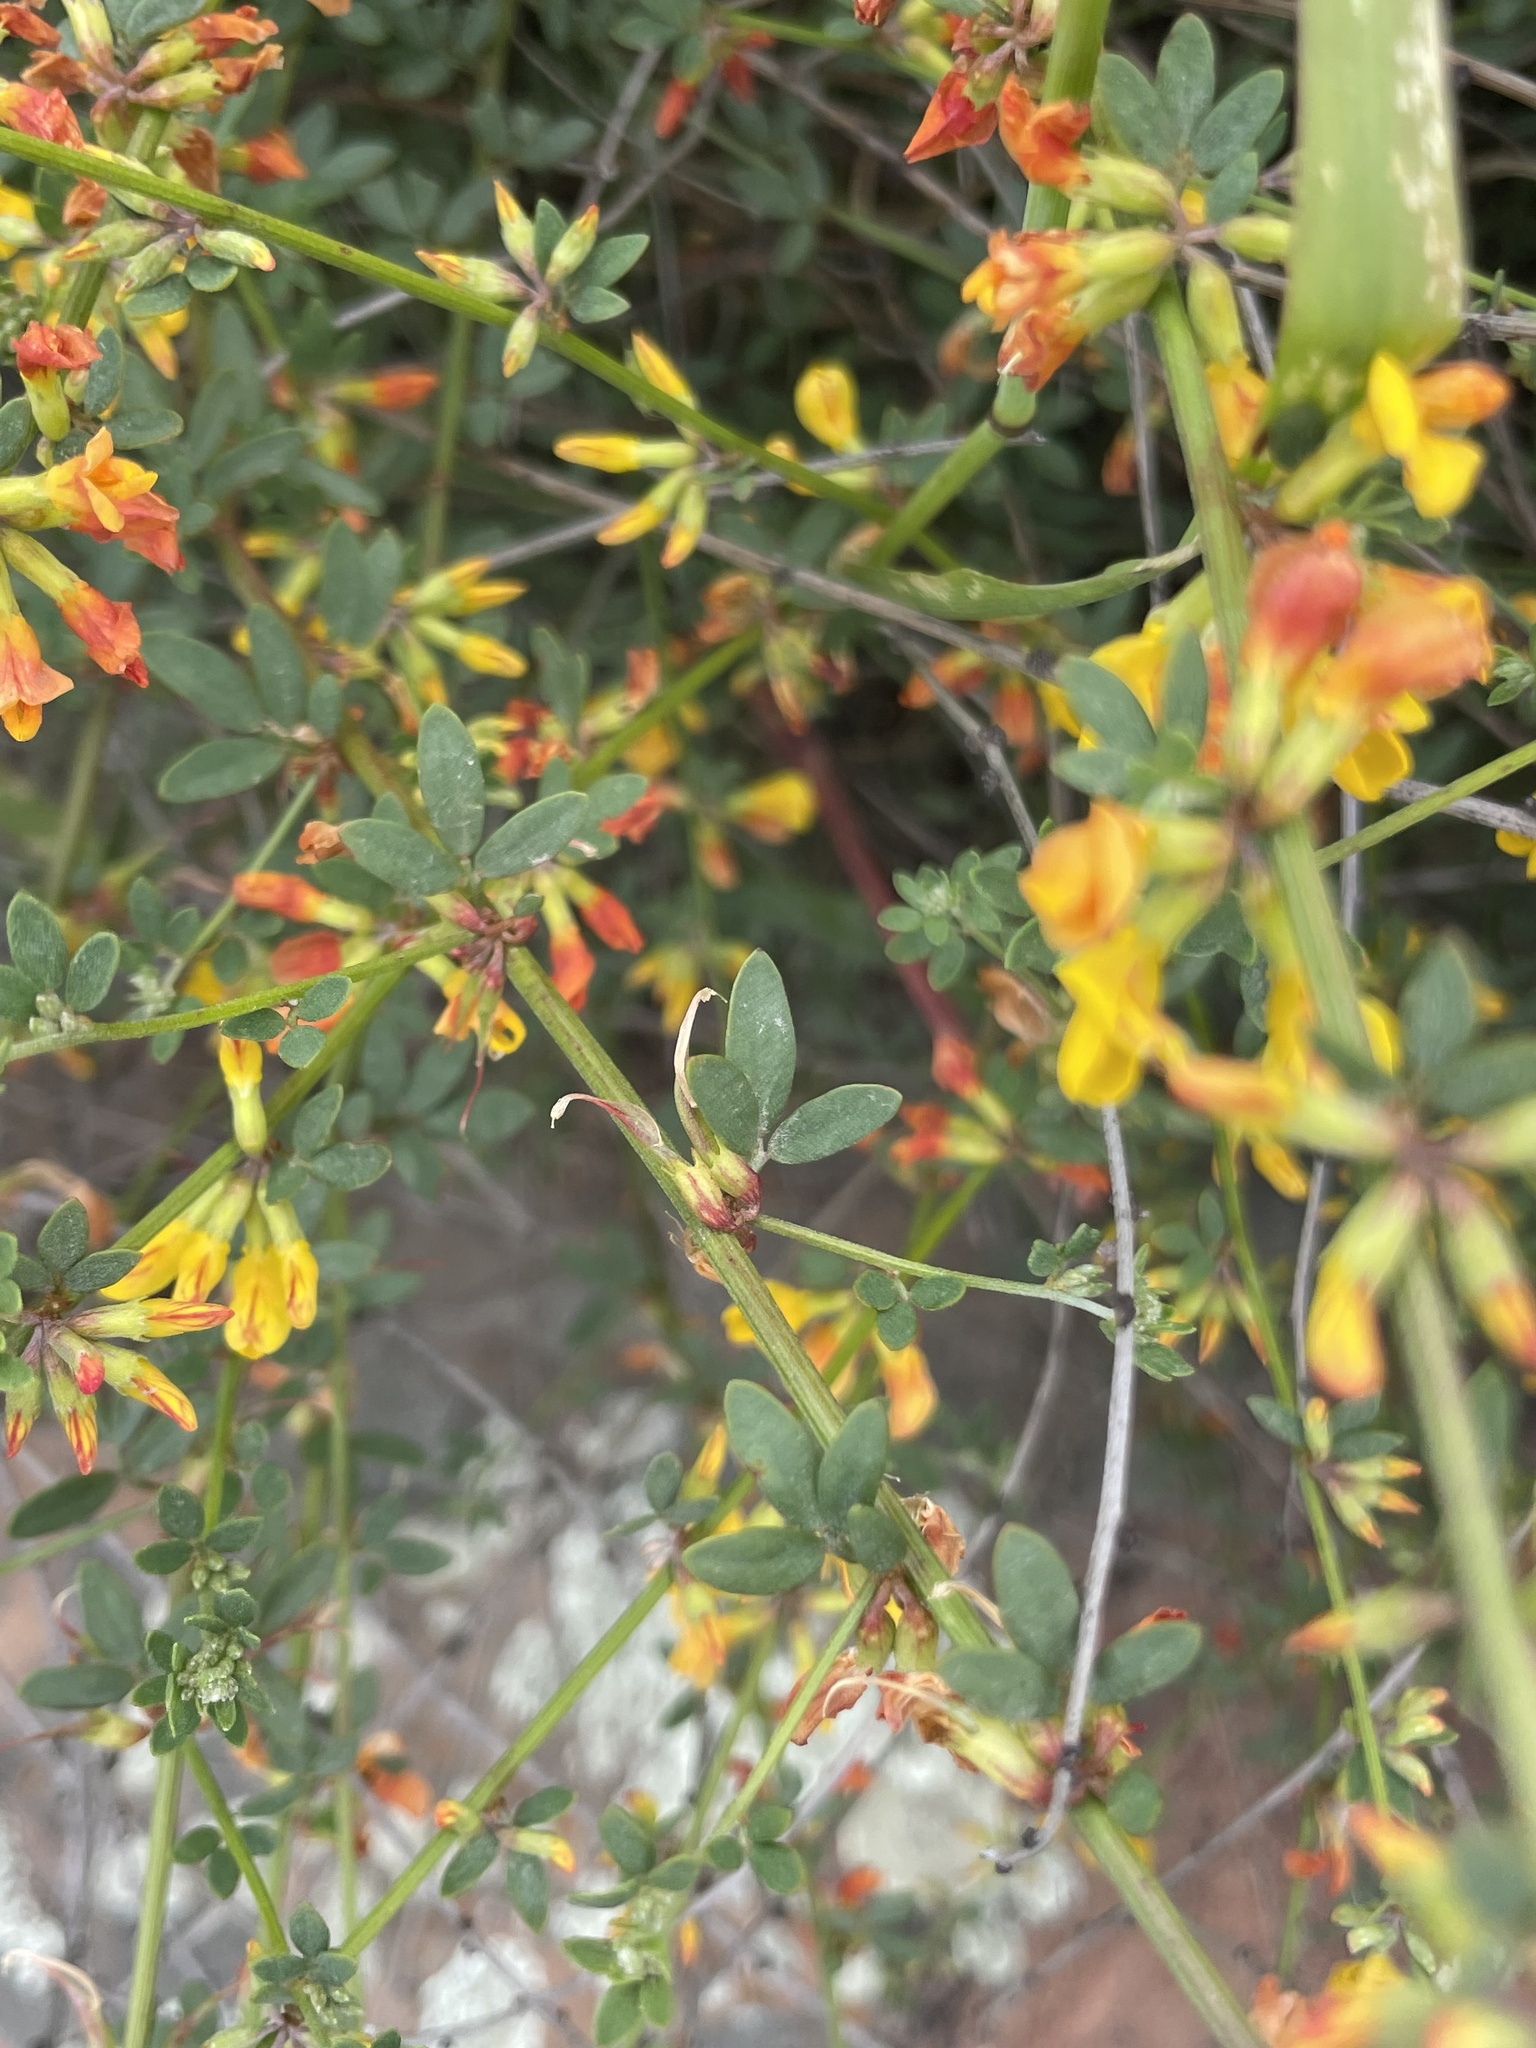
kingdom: Plantae
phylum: Tracheophyta
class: Magnoliopsida
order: Fabales
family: Fabaceae
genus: Acmispon
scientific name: Acmispon glaber
